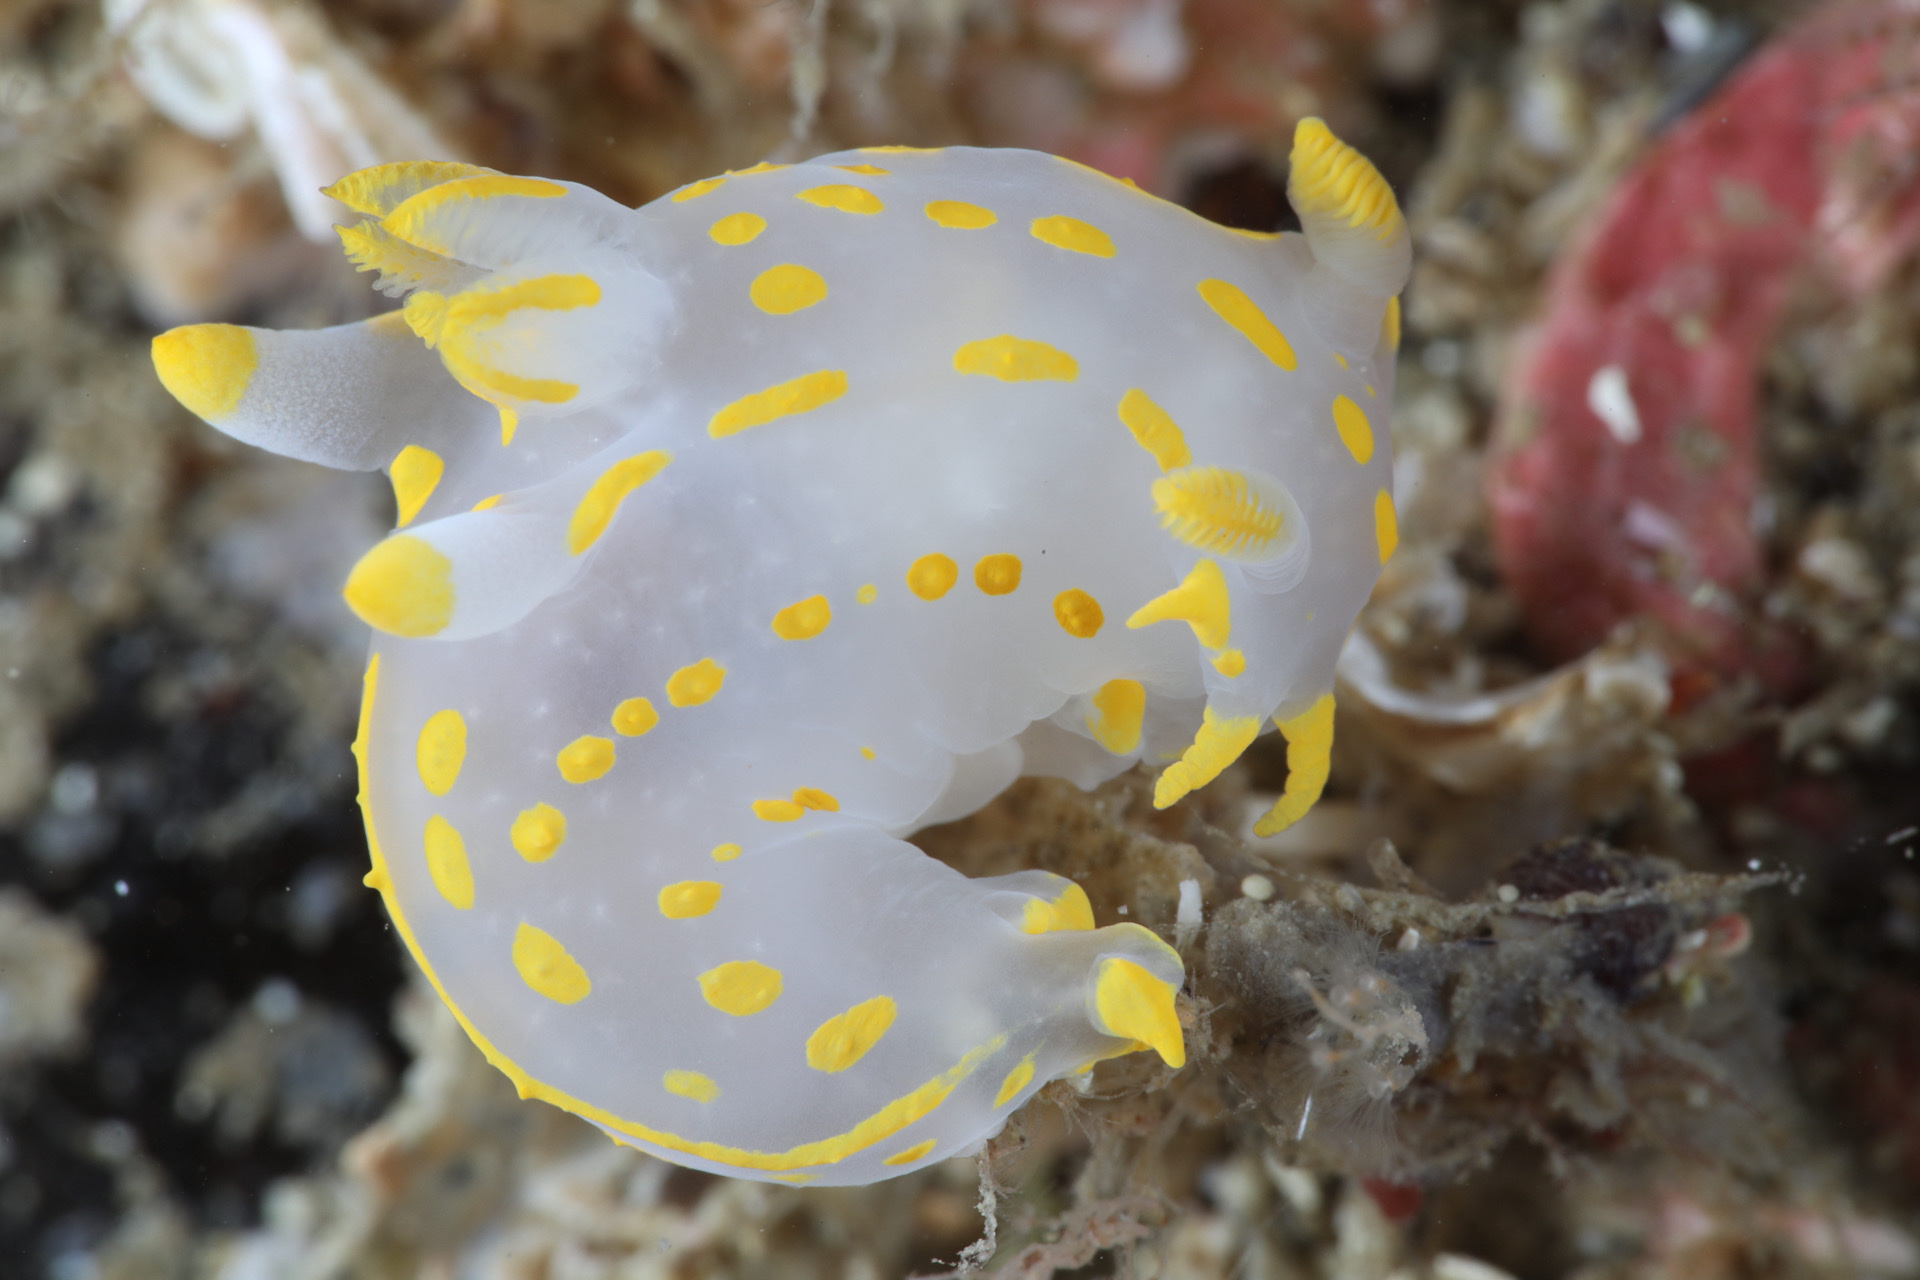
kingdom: Animalia
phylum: Mollusca
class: Gastropoda
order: Nudibranchia
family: Polyceridae
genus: Polycera
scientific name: Polycera quadrilineata
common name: Four-striped polycera
